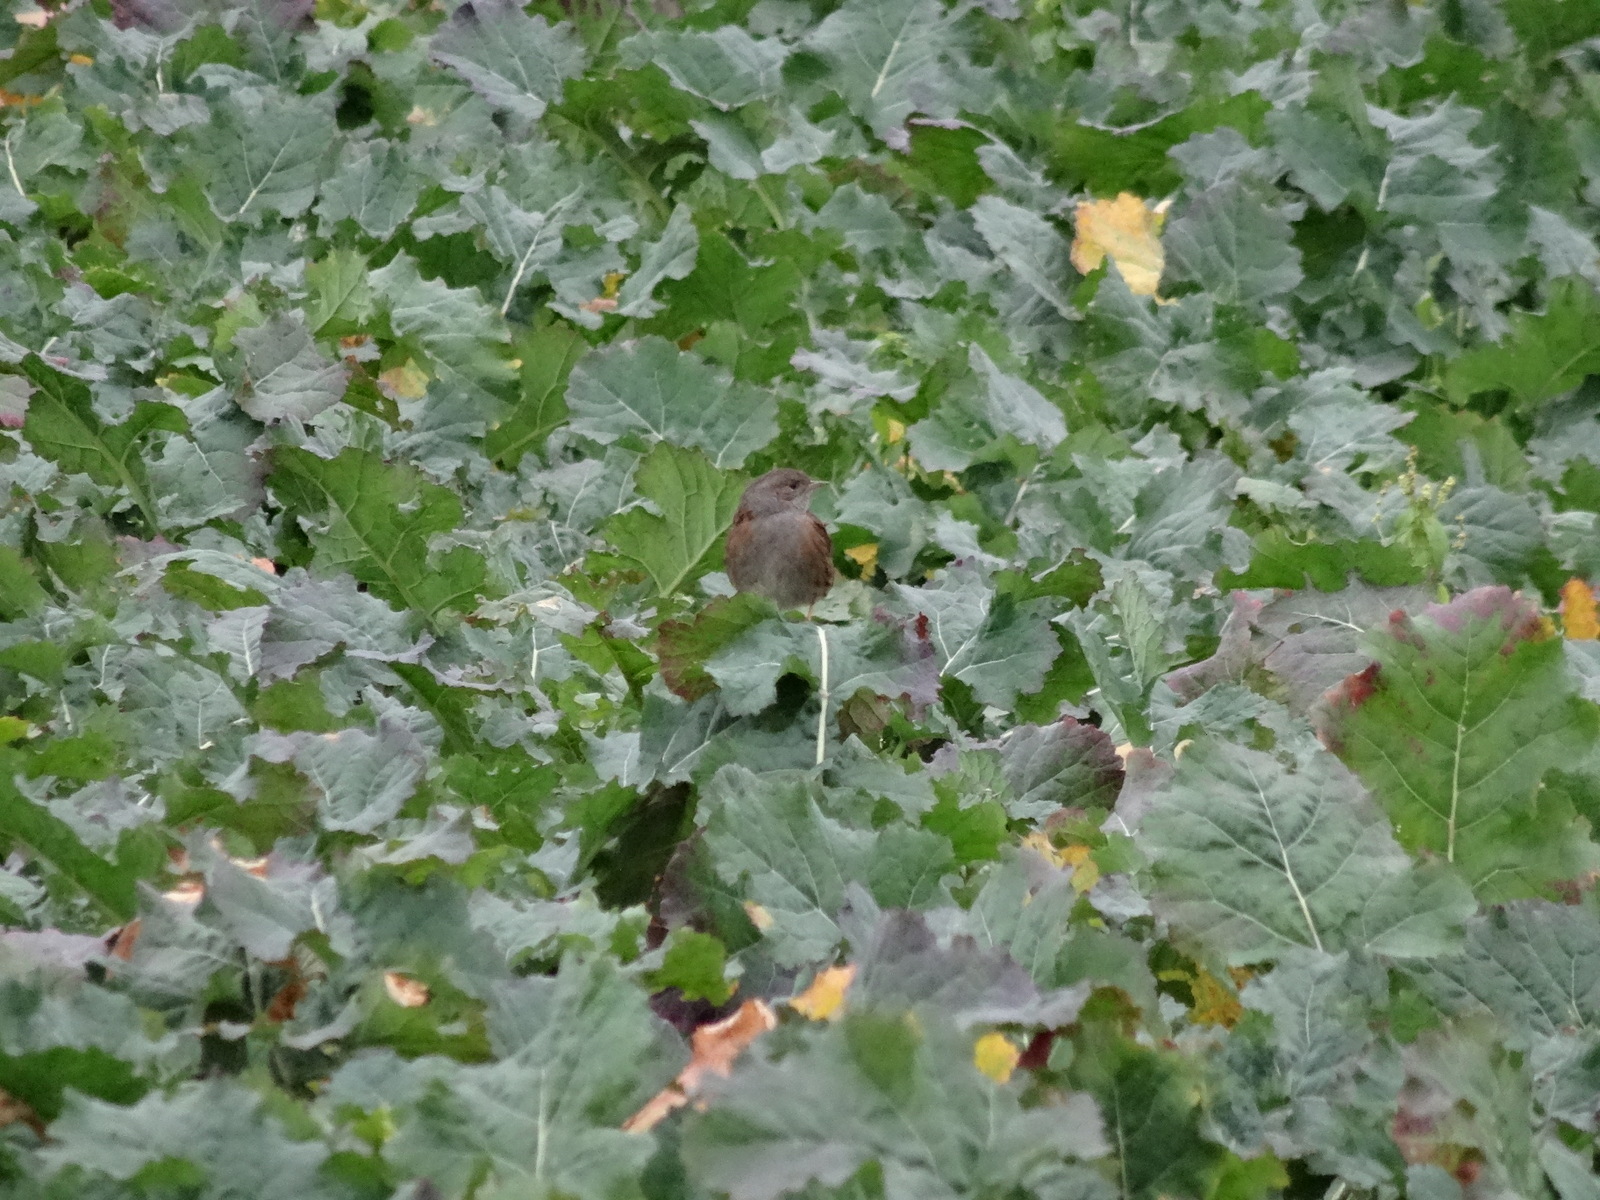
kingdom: Animalia
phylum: Chordata
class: Aves
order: Passeriformes
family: Prunellidae
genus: Prunella
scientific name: Prunella modularis
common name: Dunnock
